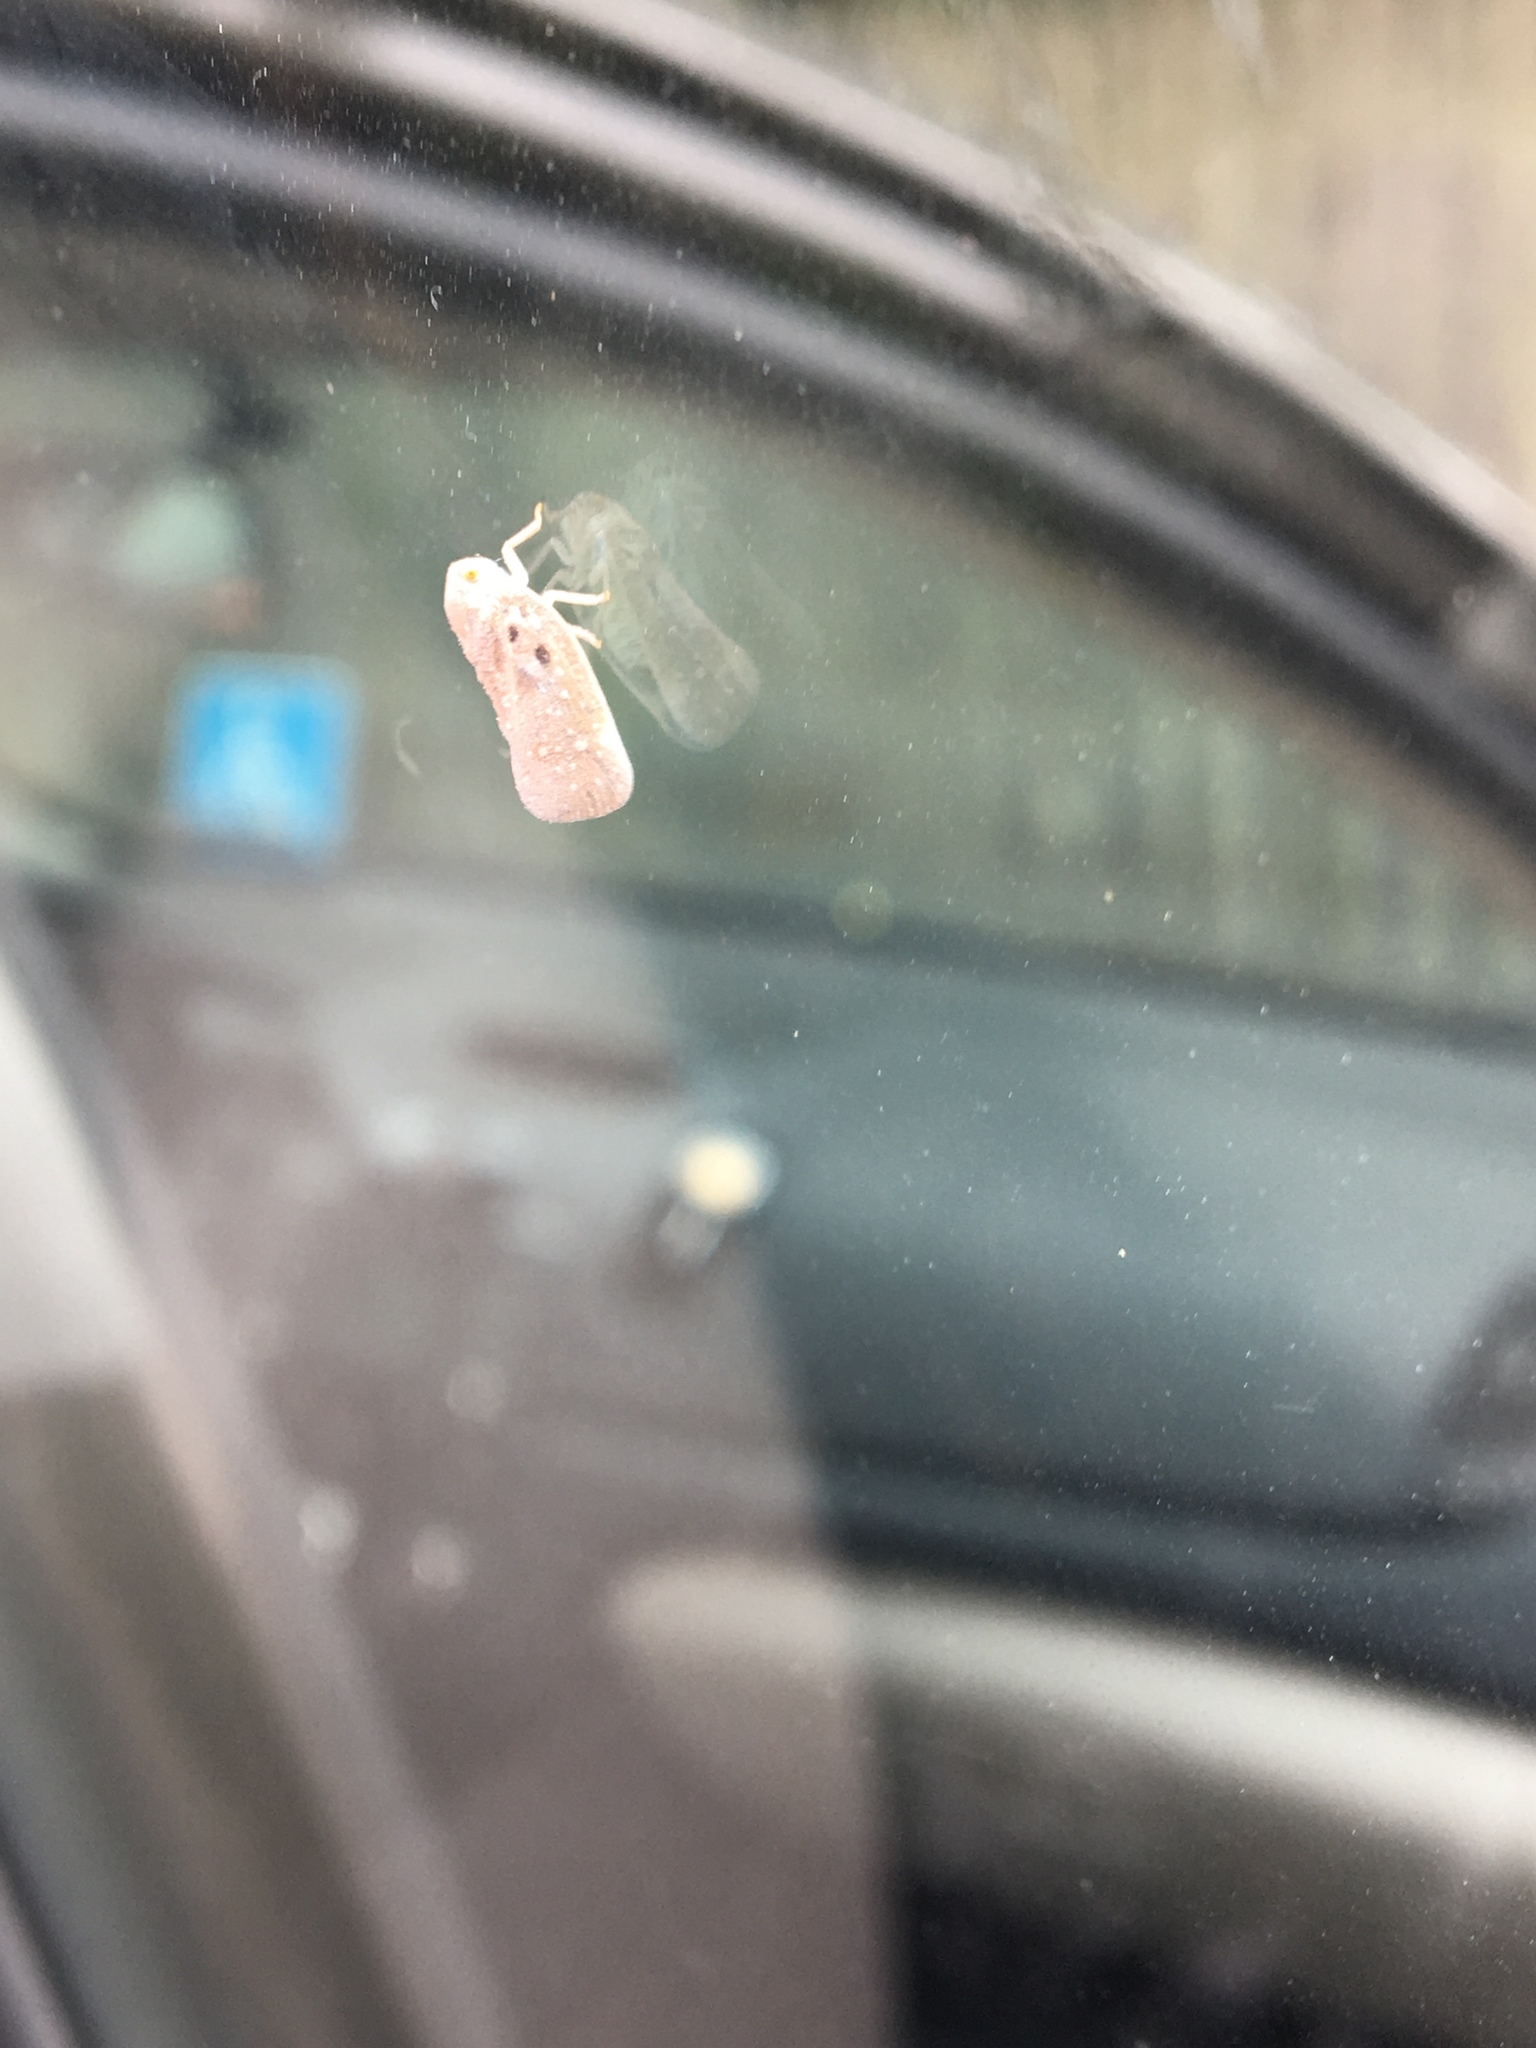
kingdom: Animalia
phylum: Arthropoda
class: Insecta
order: Hemiptera
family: Flatidae
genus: Metcalfa
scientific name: Metcalfa pruinosa
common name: Citrus flatid planthopper
